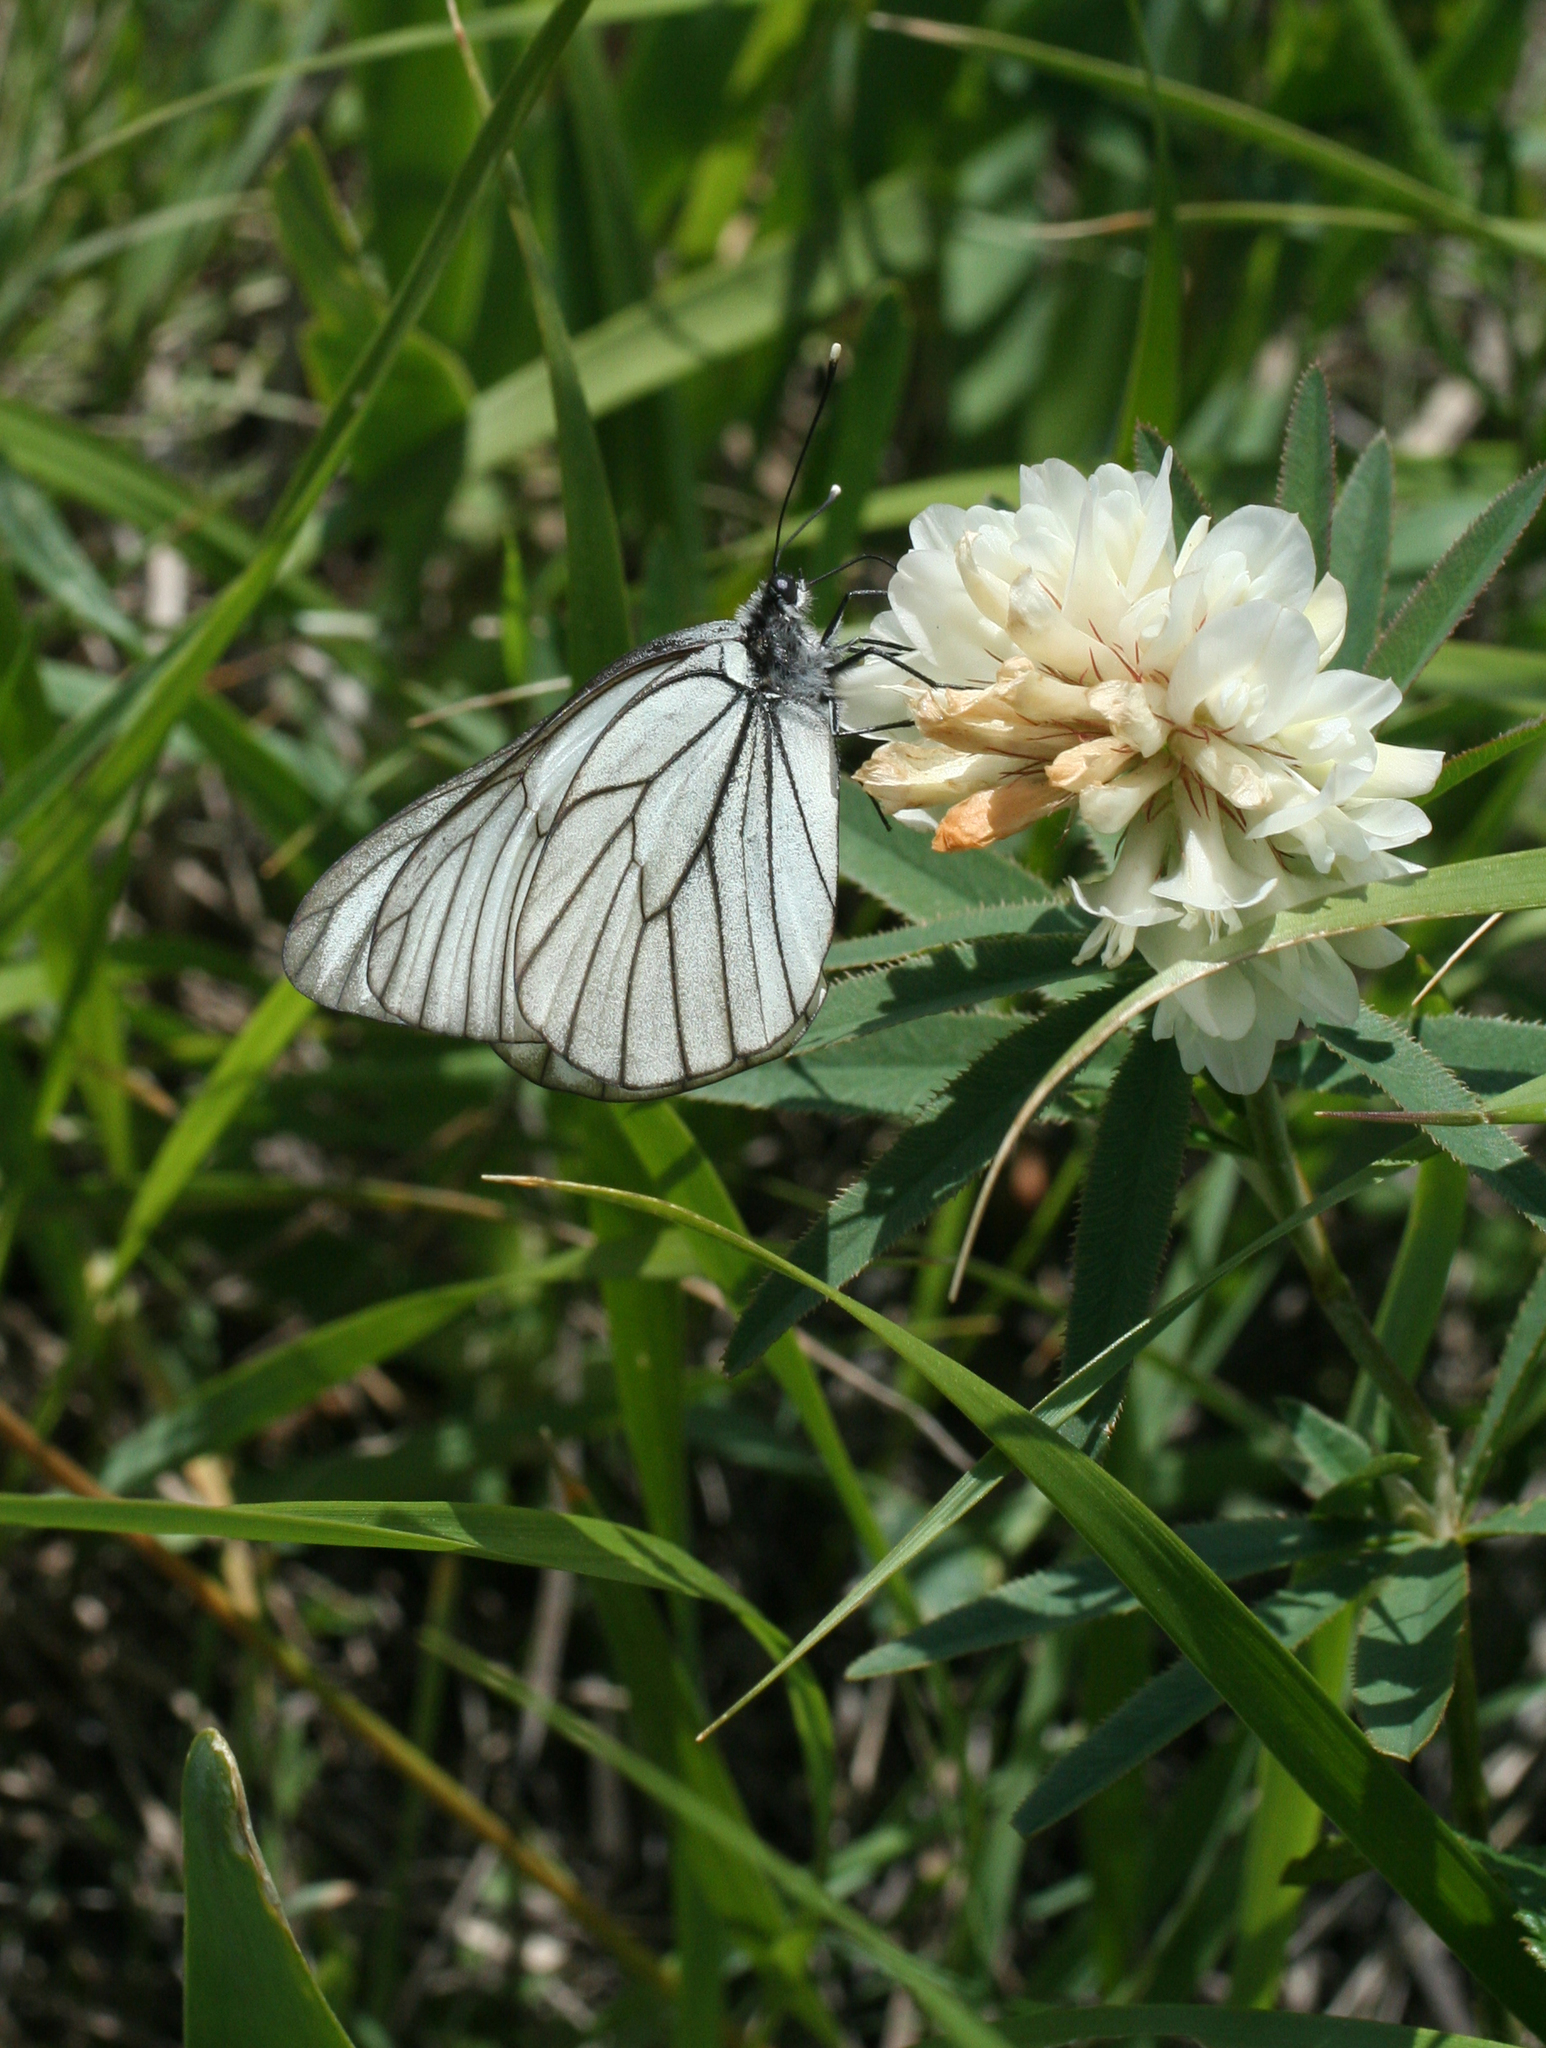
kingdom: Animalia
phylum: Arthropoda
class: Insecta
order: Lepidoptera
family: Pieridae
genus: Aporia
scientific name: Aporia crataegi
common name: Black-veined white
